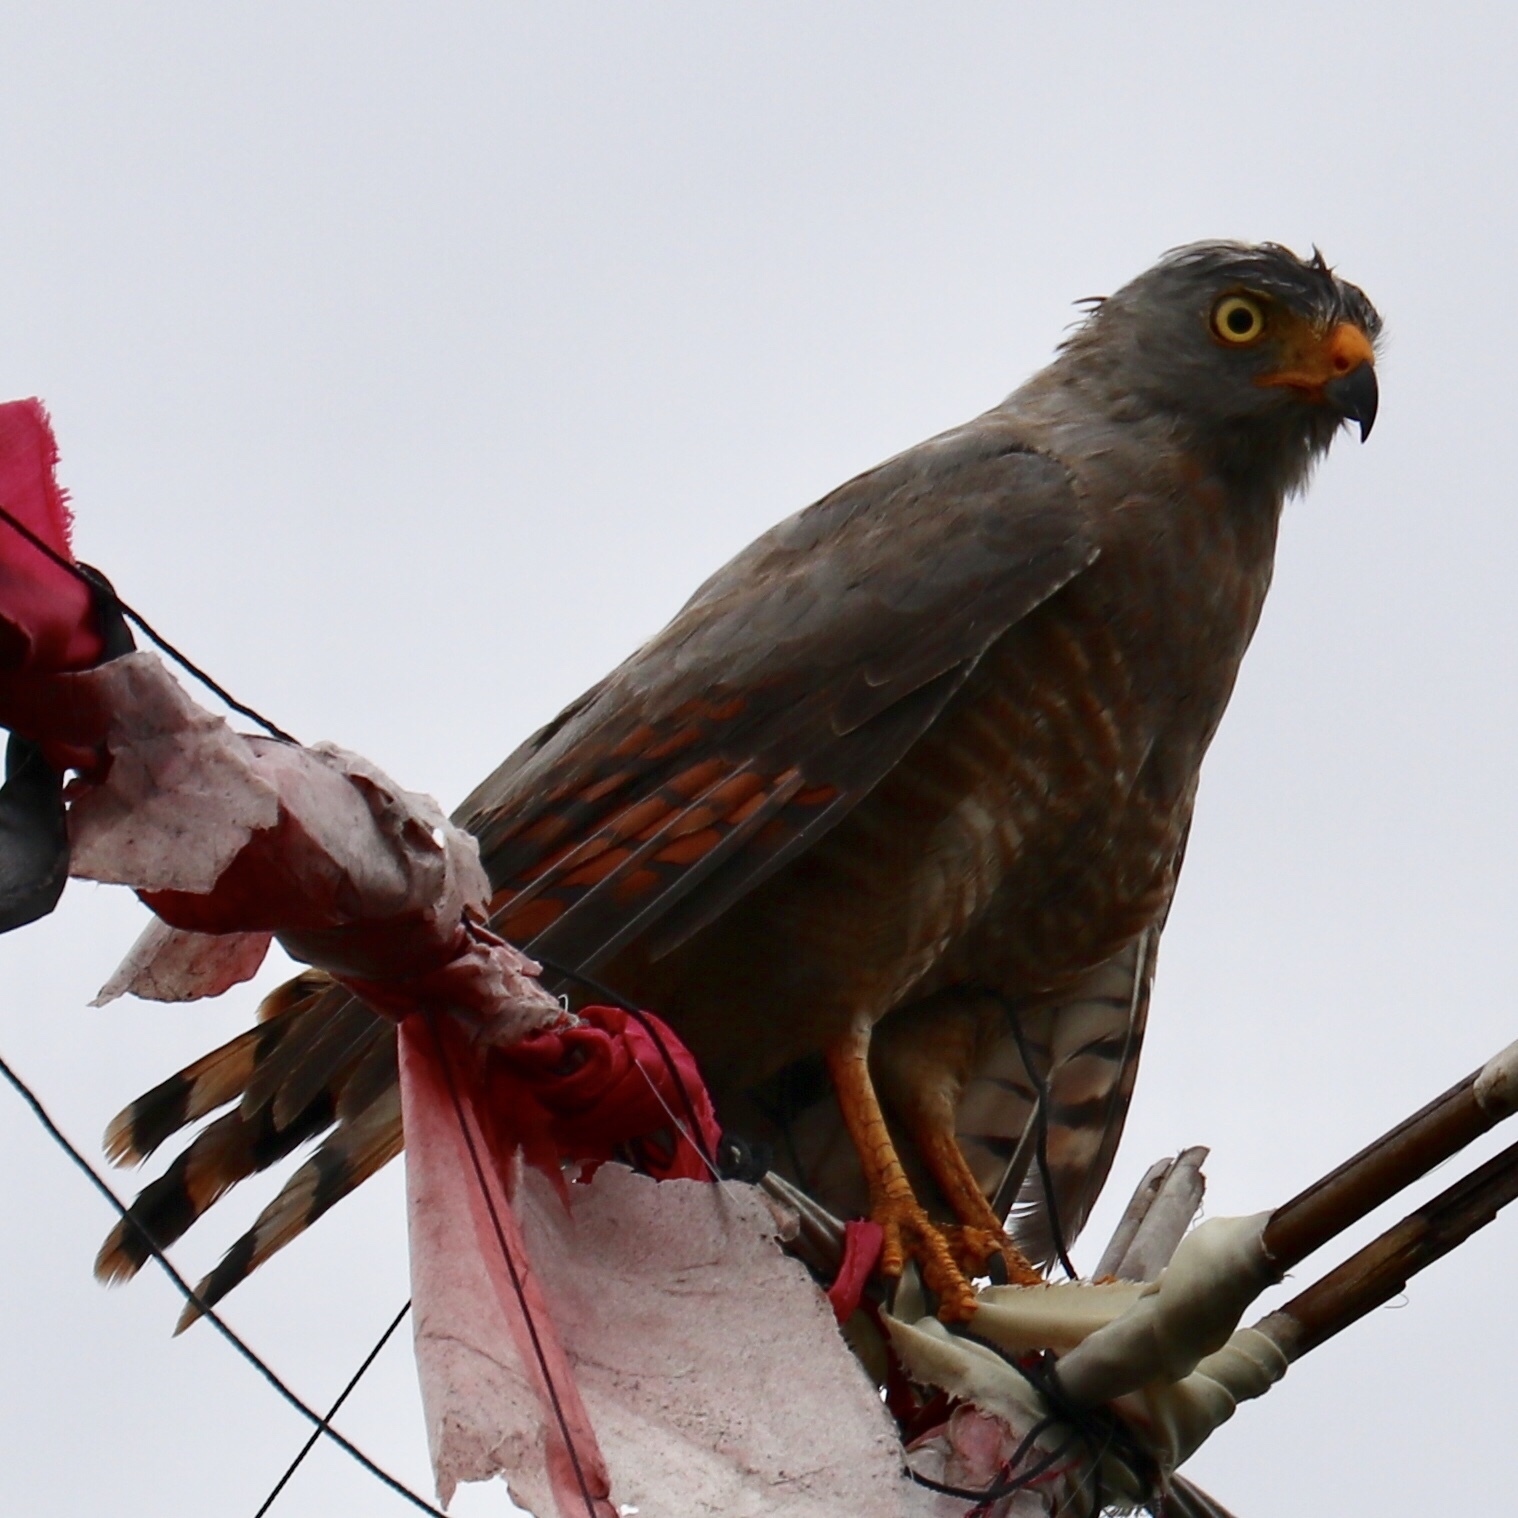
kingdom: Animalia
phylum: Chordata
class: Aves
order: Accipitriformes
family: Accipitridae
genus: Rupornis
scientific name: Rupornis magnirostris
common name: Roadside hawk
